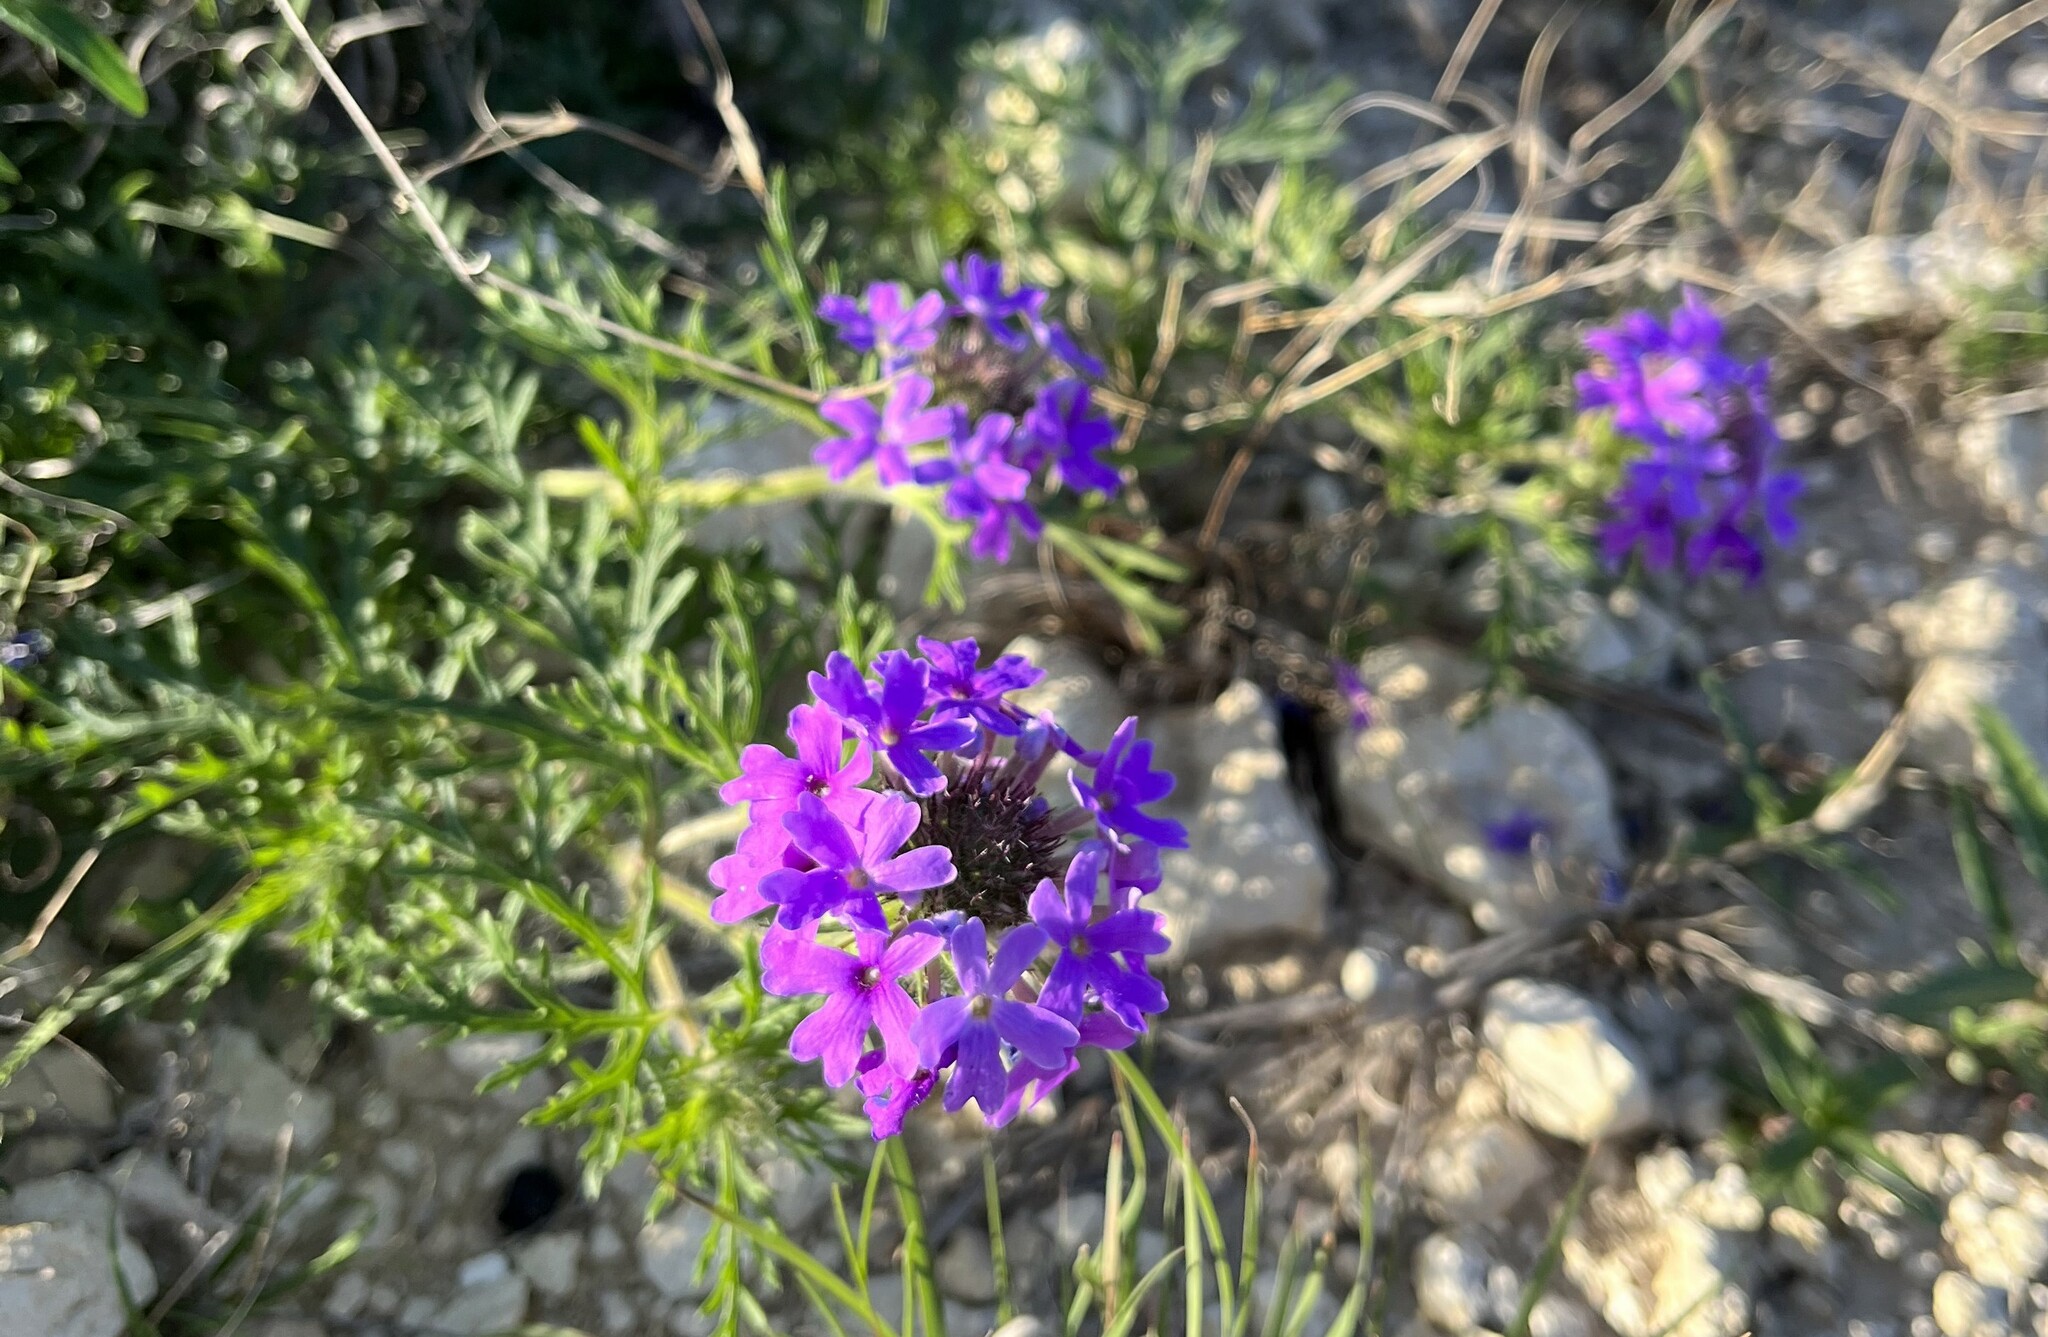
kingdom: Plantae
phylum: Tracheophyta
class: Magnoliopsida
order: Lamiales
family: Verbenaceae
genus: Verbena
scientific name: Verbena bipinnatifida
